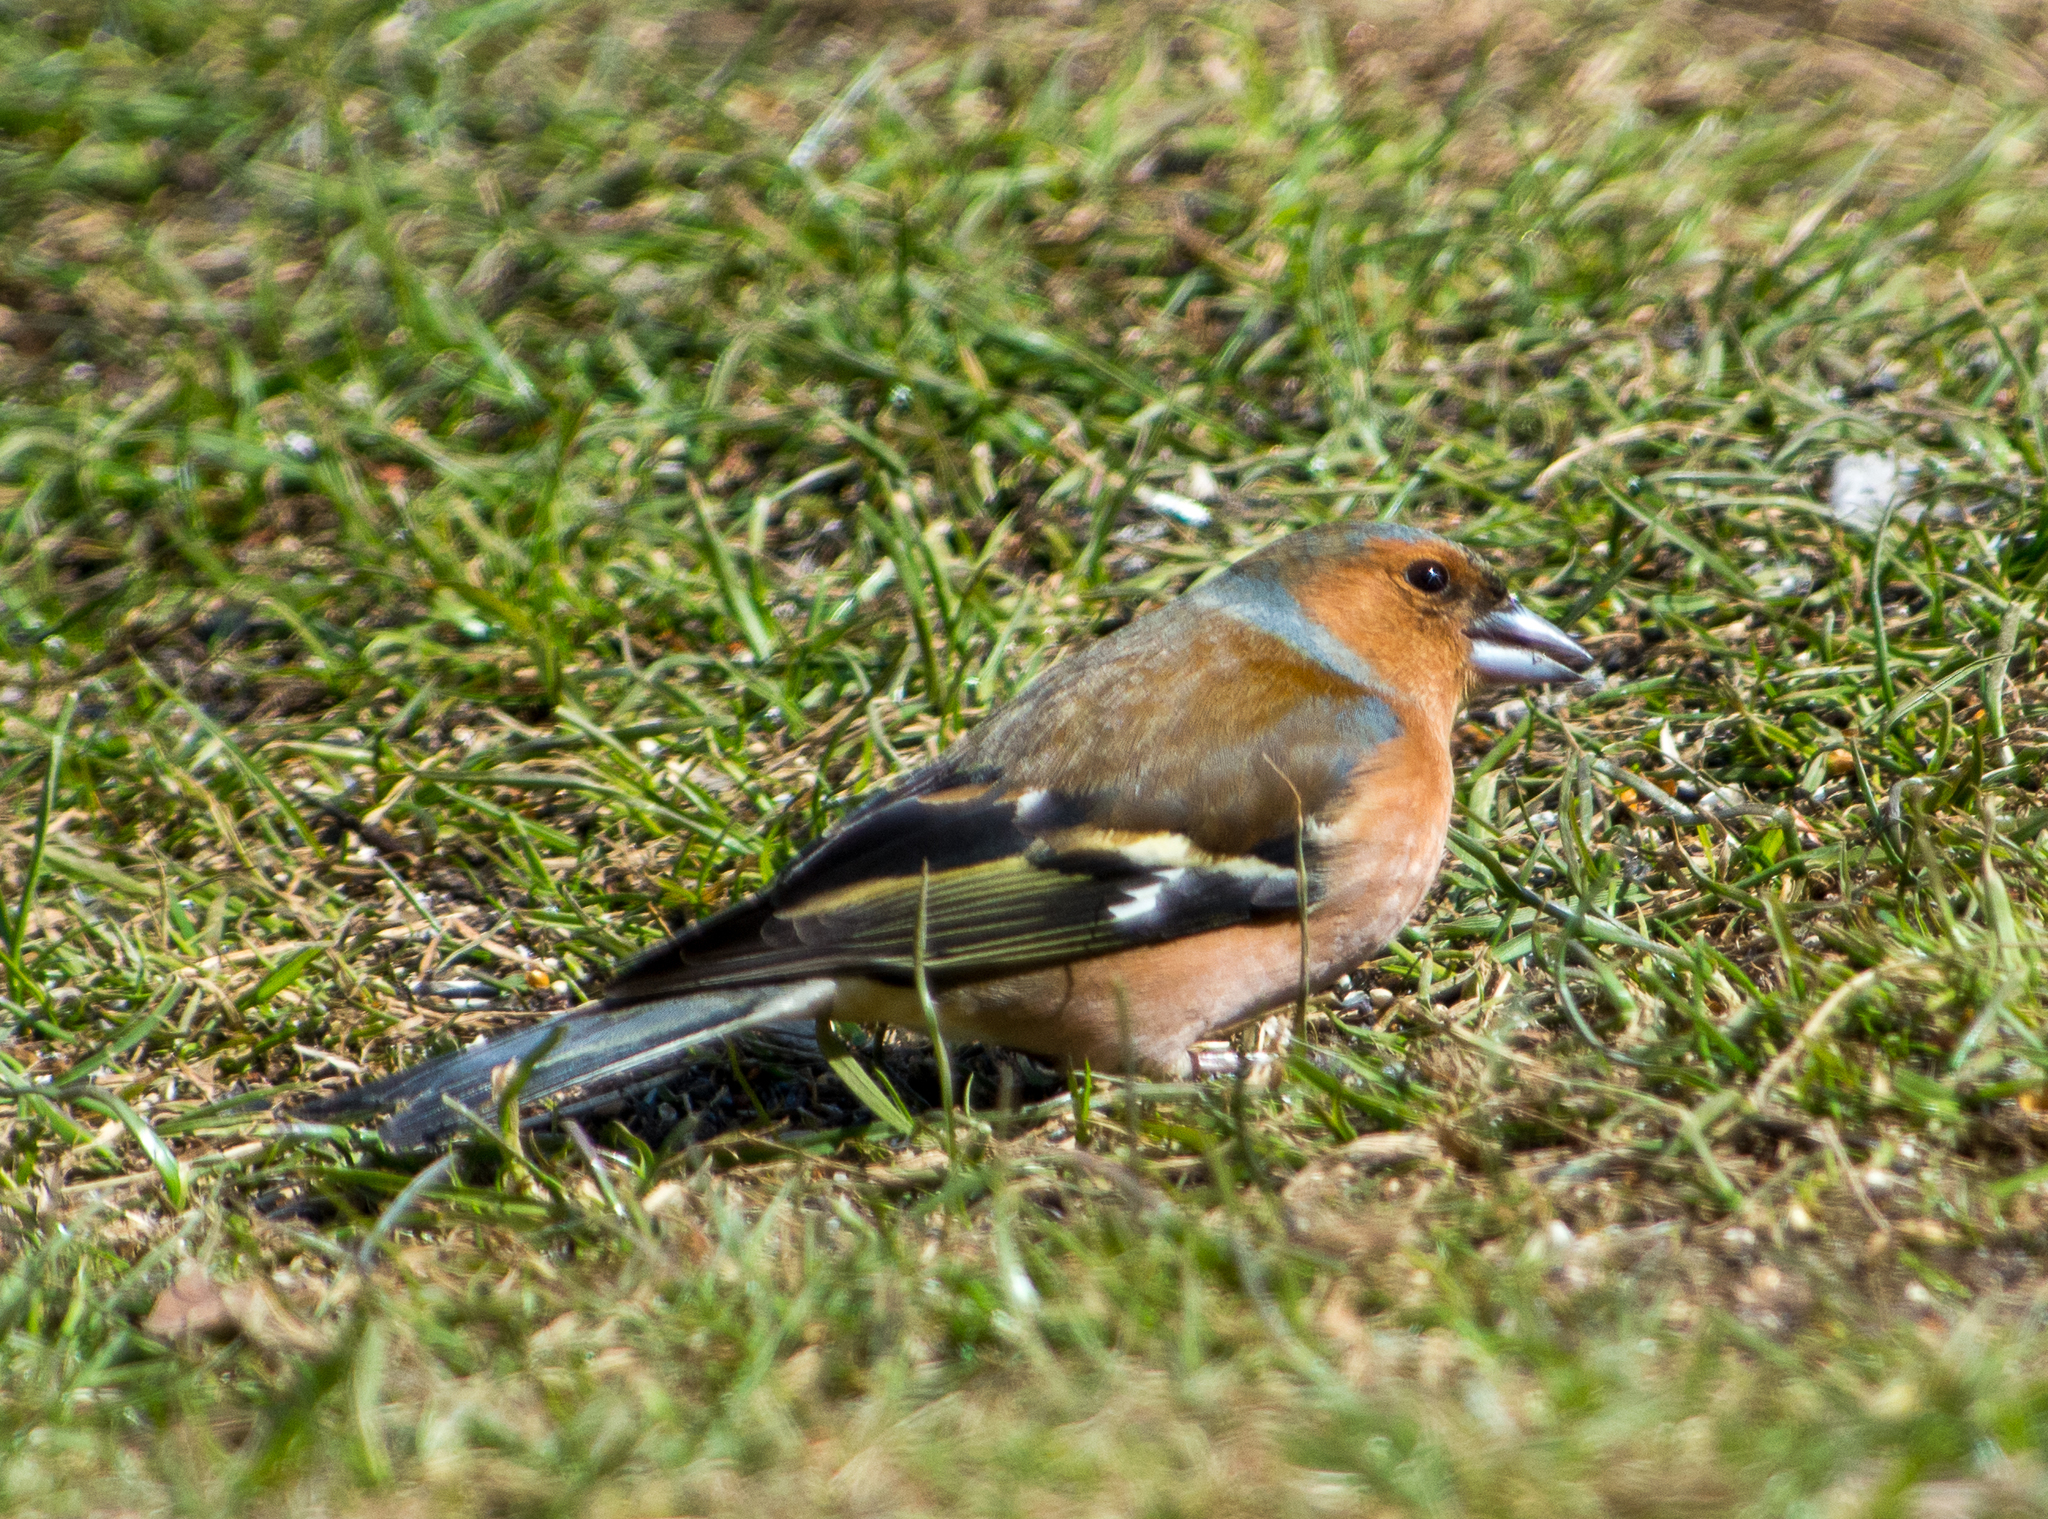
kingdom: Animalia
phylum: Chordata
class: Aves
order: Passeriformes
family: Fringillidae
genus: Fringilla
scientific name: Fringilla coelebs
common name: Common chaffinch
